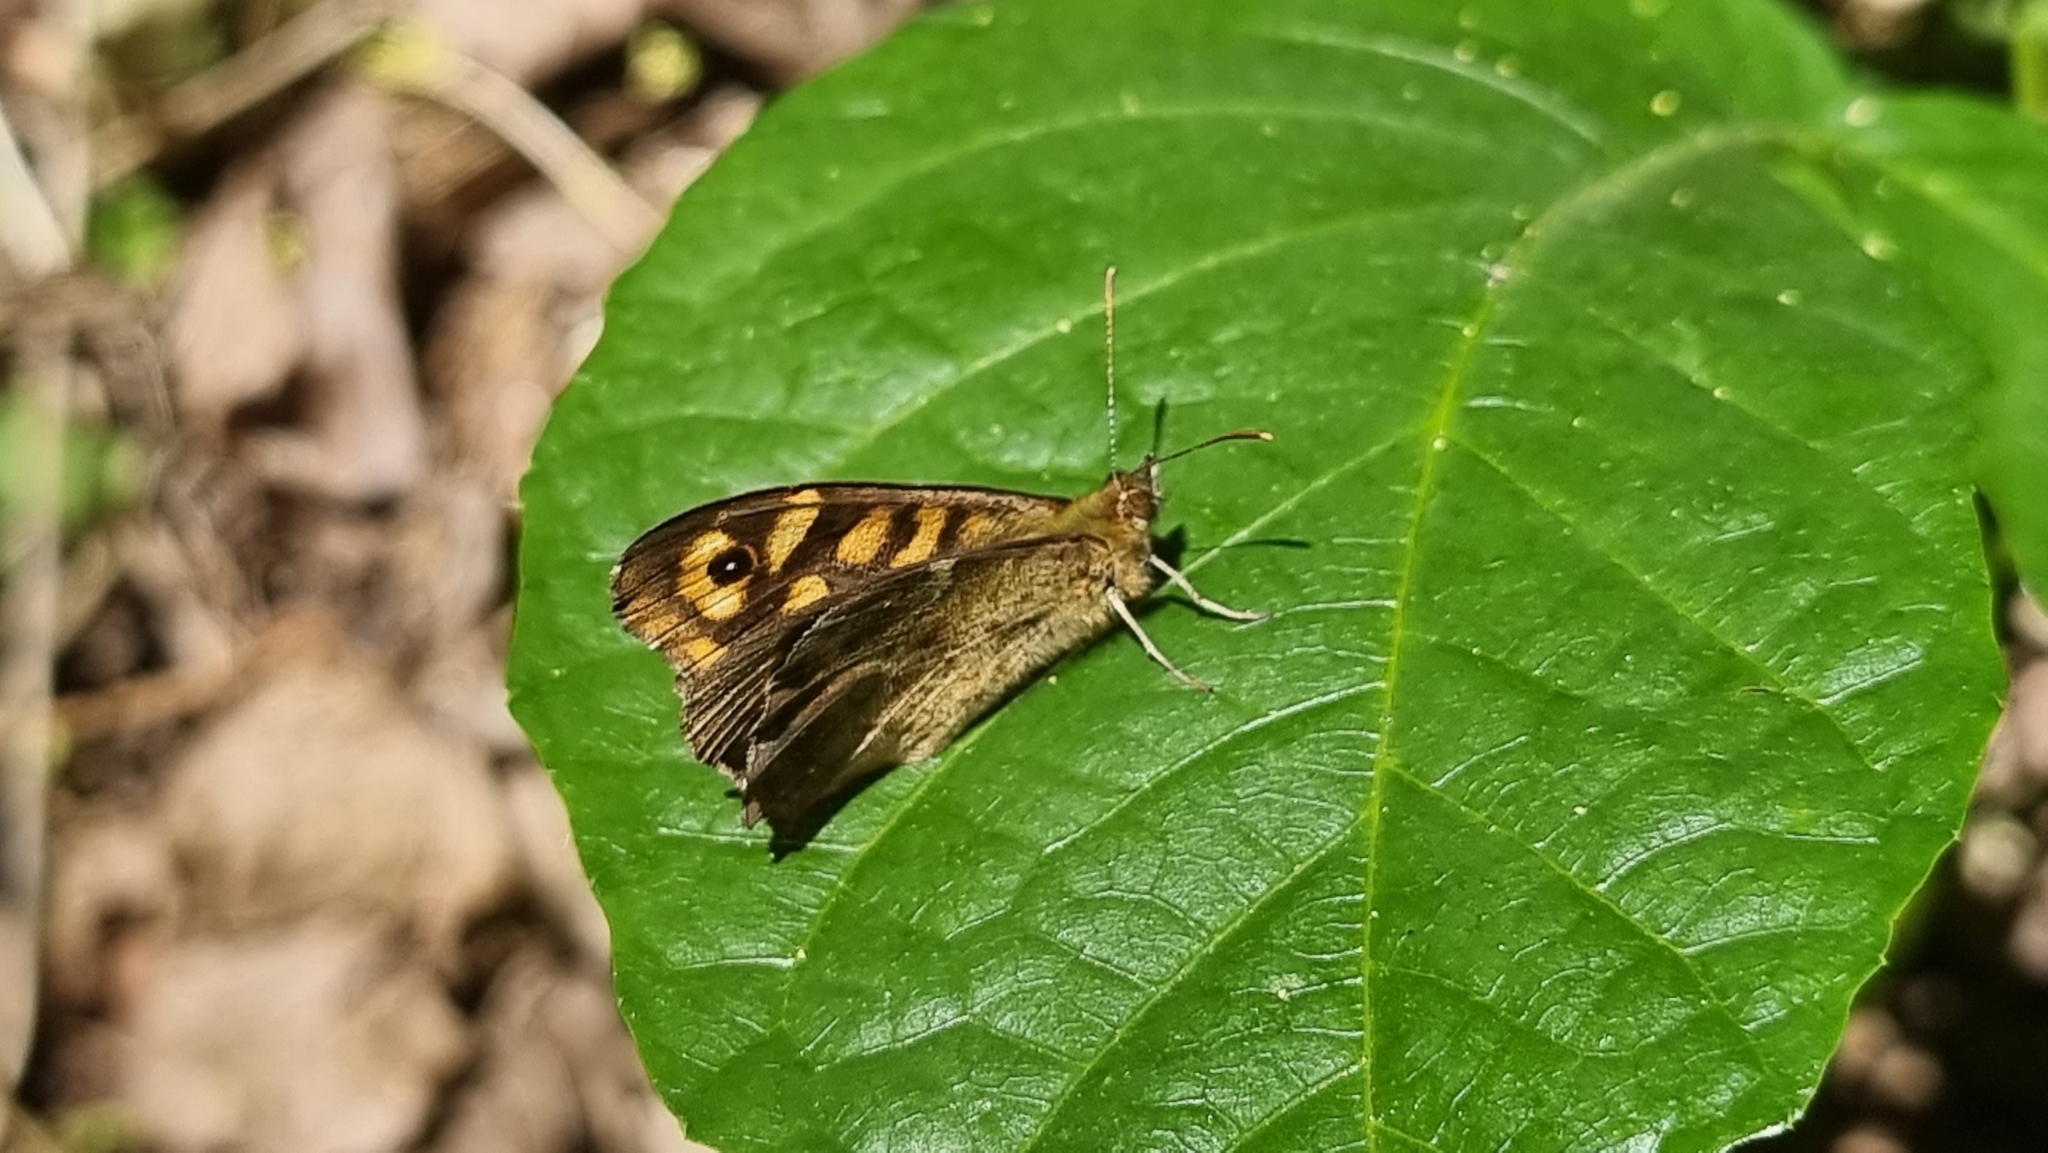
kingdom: Animalia
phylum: Arthropoda
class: Insecta
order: Lepidoptera
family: Nymphalidae
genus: Pararge
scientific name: Pararge aegeria
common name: Speckled wood
